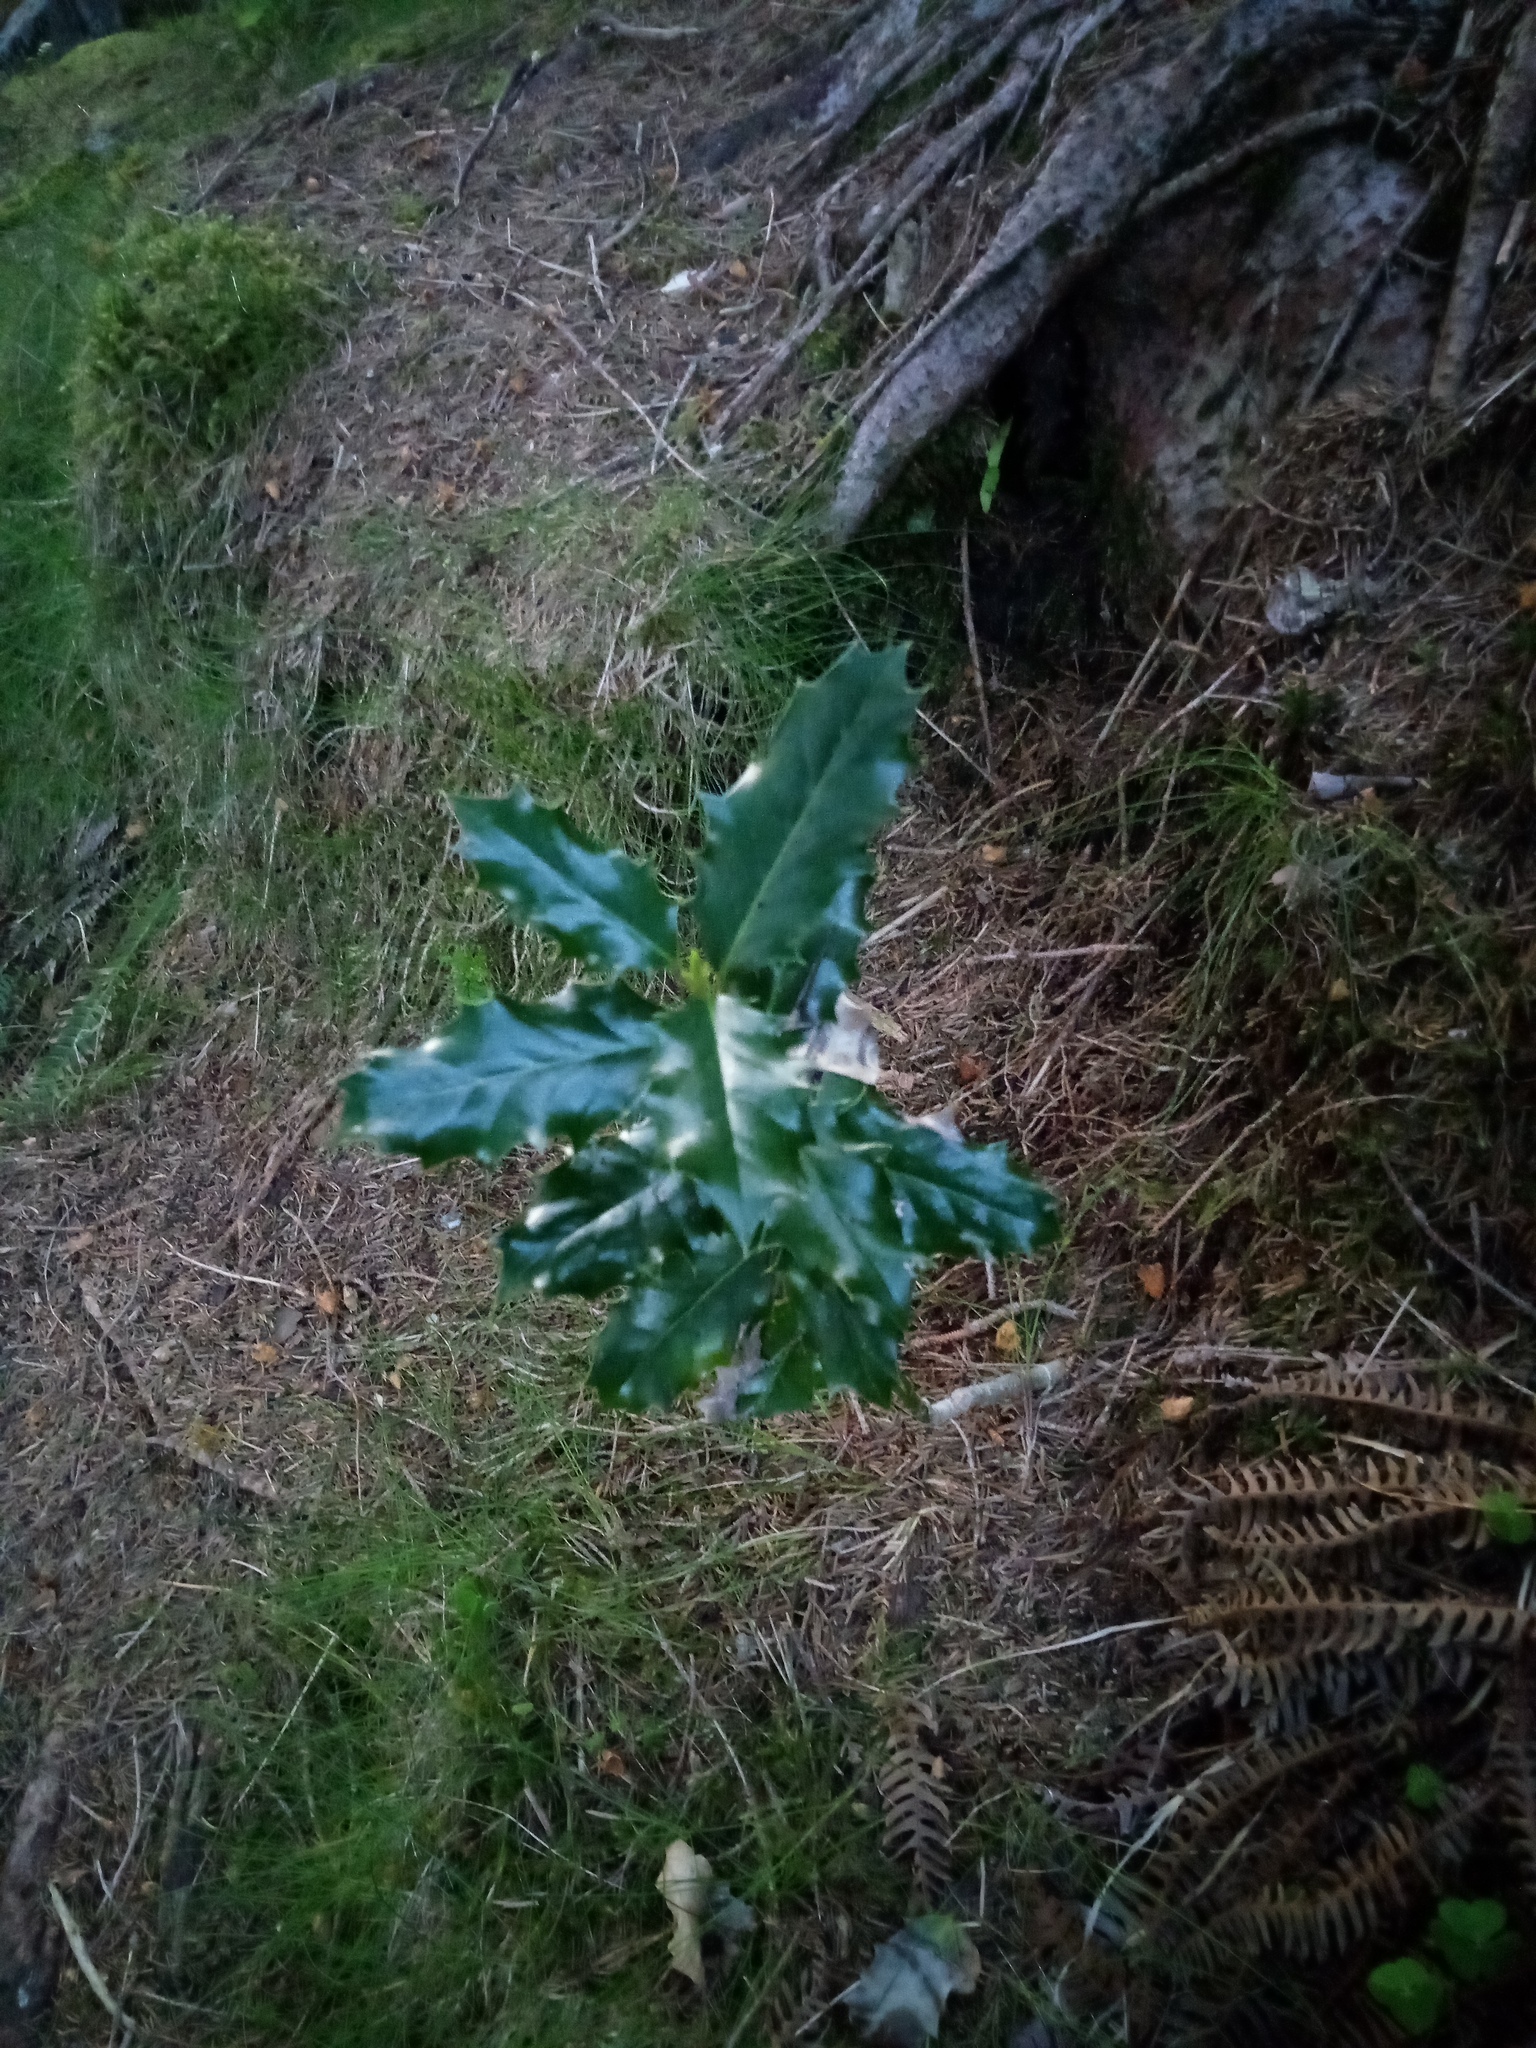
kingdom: Plantae
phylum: Tracheophyta
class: Magnoliopsida
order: Aquifoliales
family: Aquifoliaceae
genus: Ilex
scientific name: Ilex aquifolium
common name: English holly
